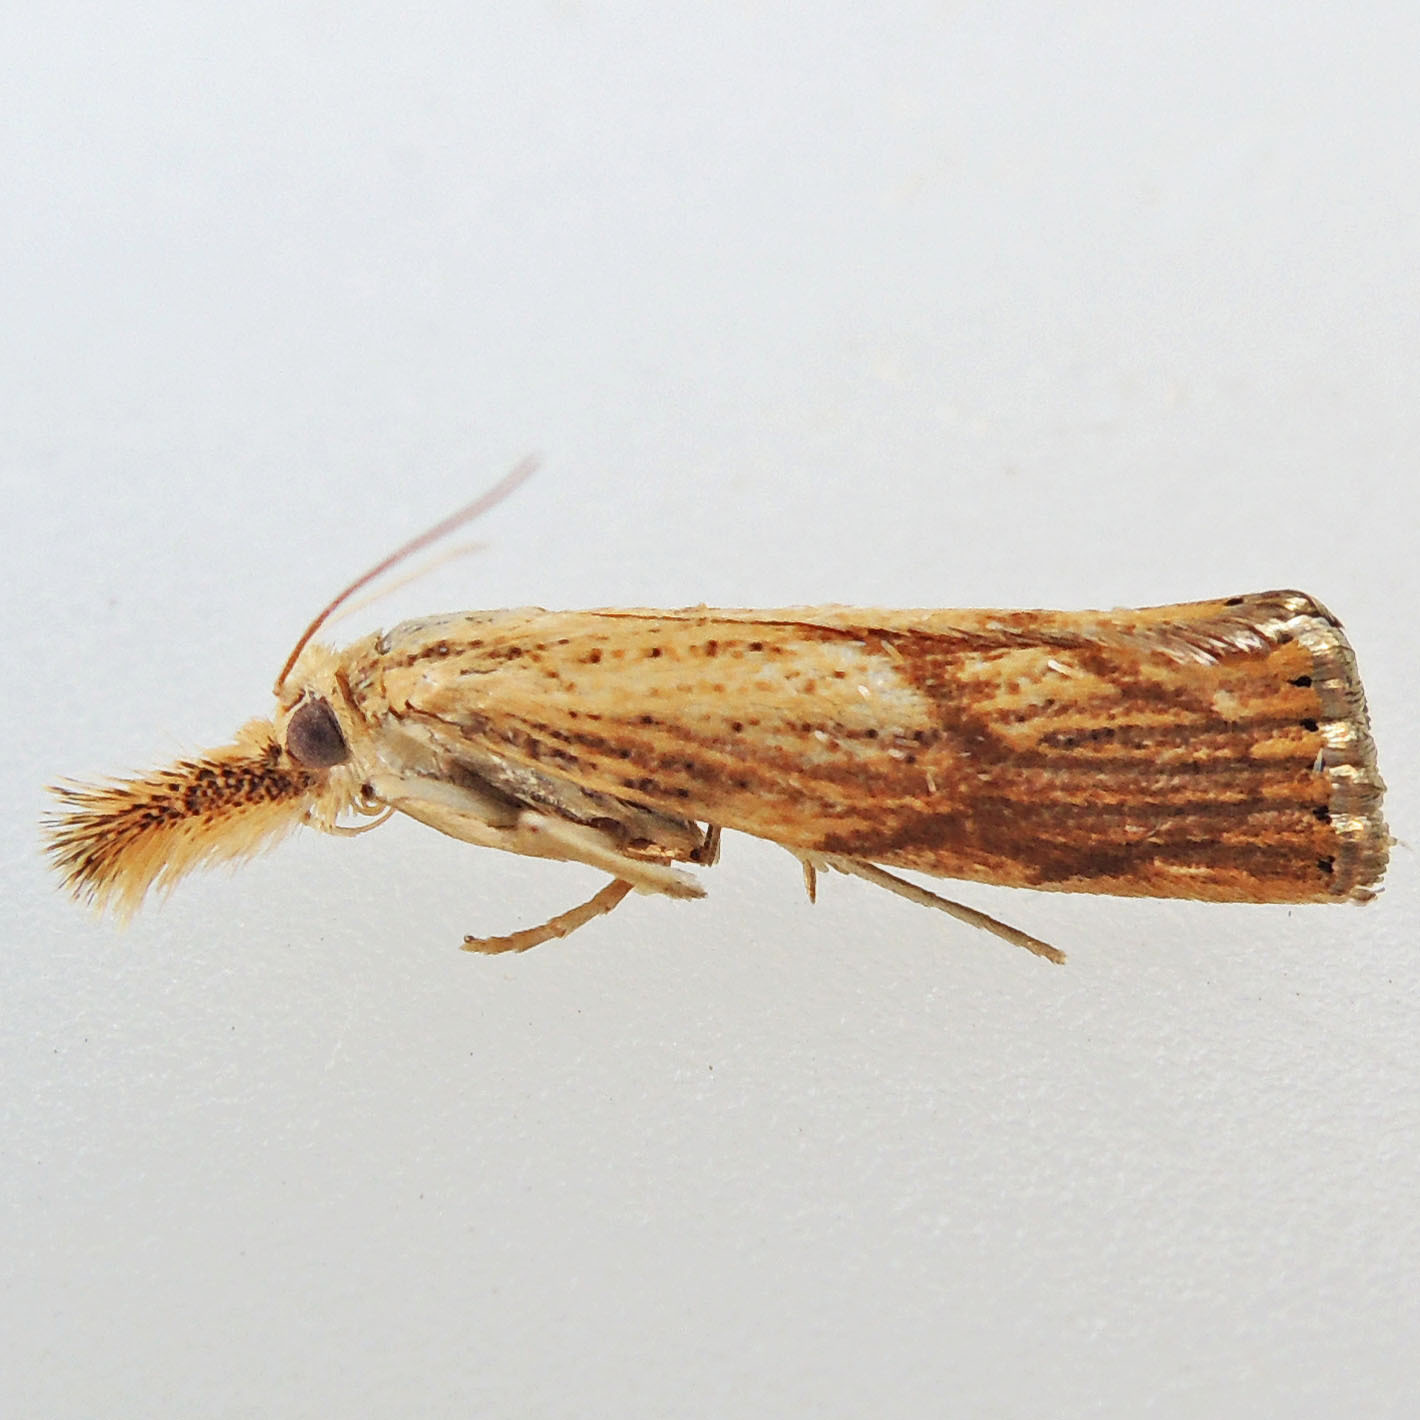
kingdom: Animalia
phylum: Arthropoda
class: Insecta
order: Lepidoptera
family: Crambidae
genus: Agriphila
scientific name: Agriphila ruricolellus
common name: Lesser vagabond sod webworm
